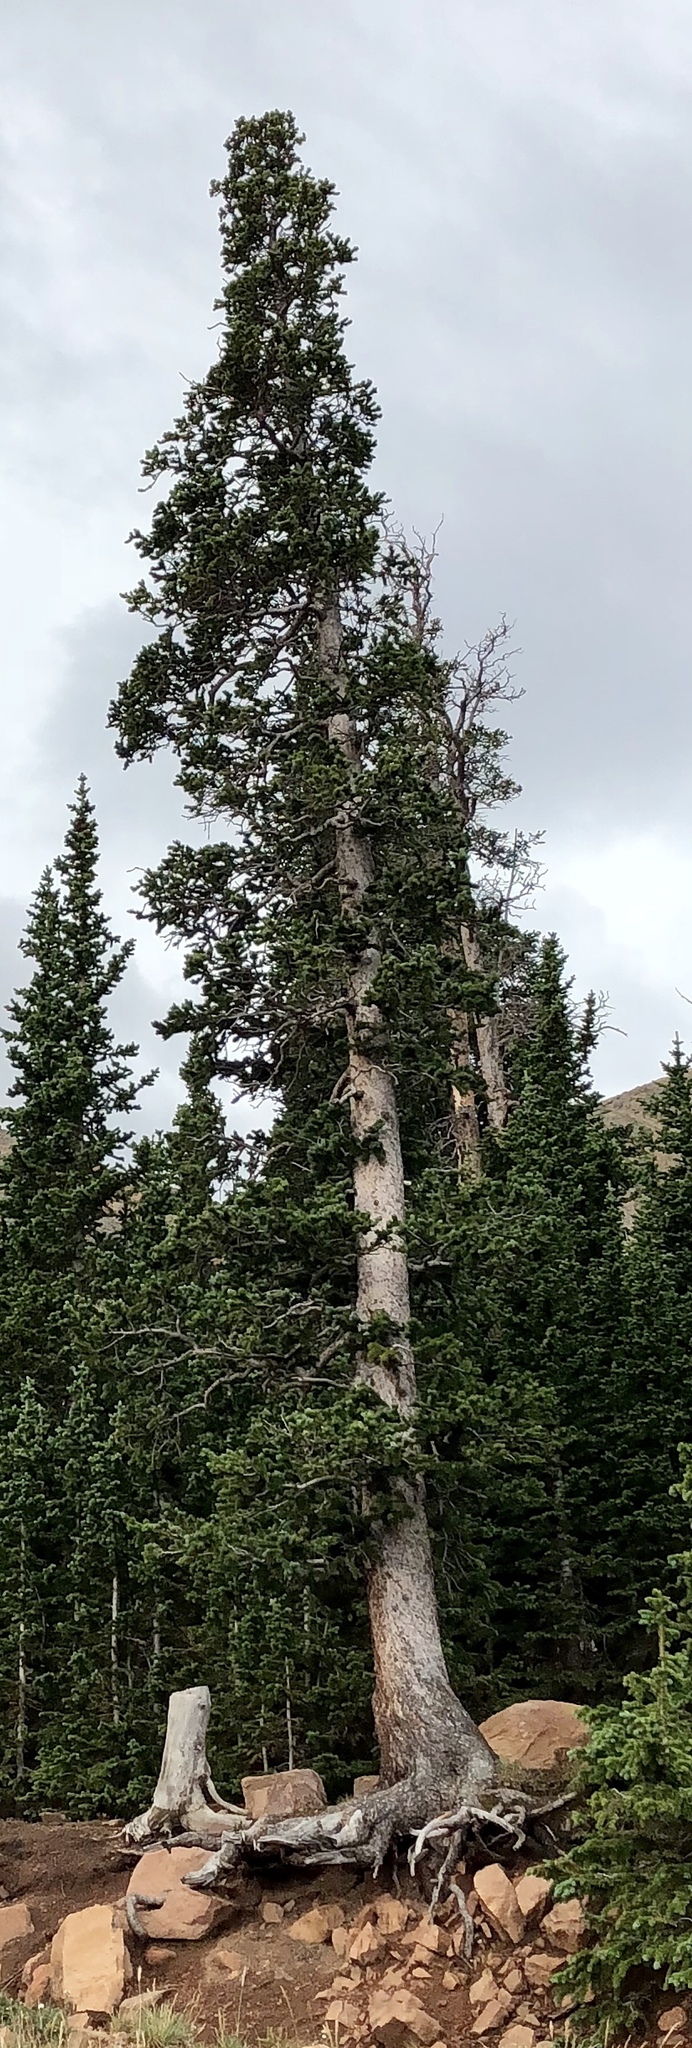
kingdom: Plantae
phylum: Tracheophyta
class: Pinopsida
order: Pinales
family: Pinaceae
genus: Picea
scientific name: Picea engelmannii
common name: Engelmann spruce
